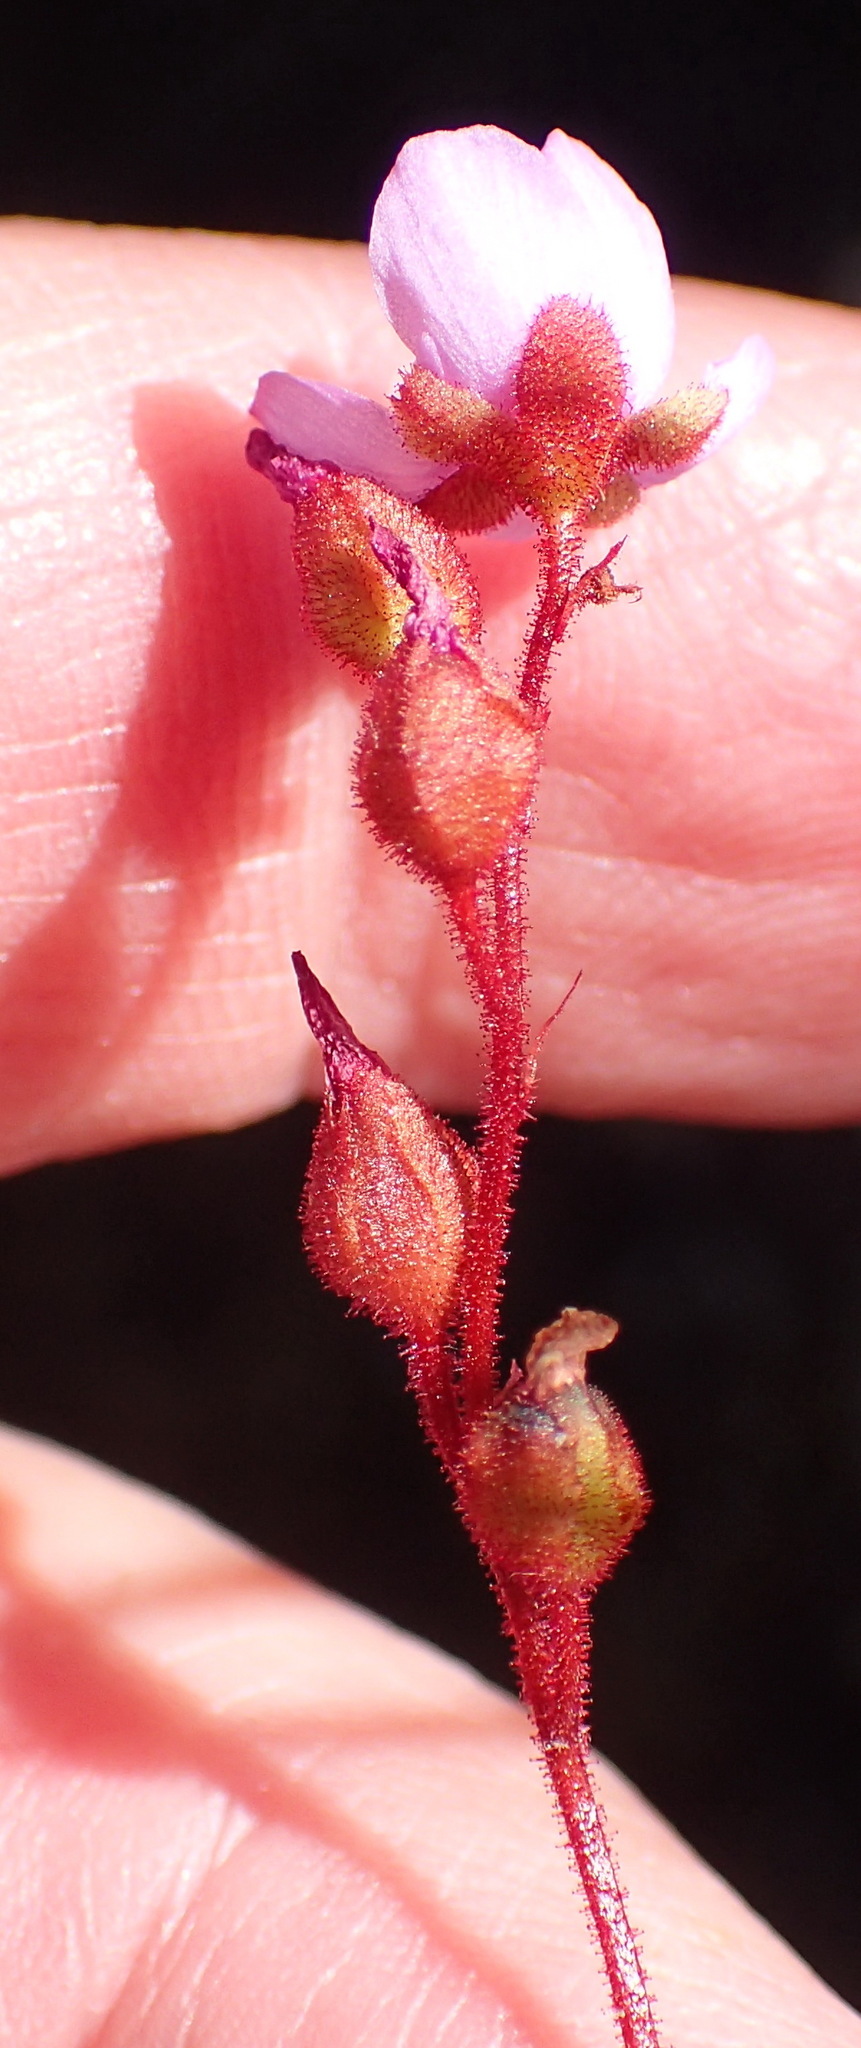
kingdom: Plantae
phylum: Tracheophyta
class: Magnoliopsida
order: Caryophyllales
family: Droseraceae
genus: Drosera
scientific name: Drosera aliciae
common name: Alice sundew
